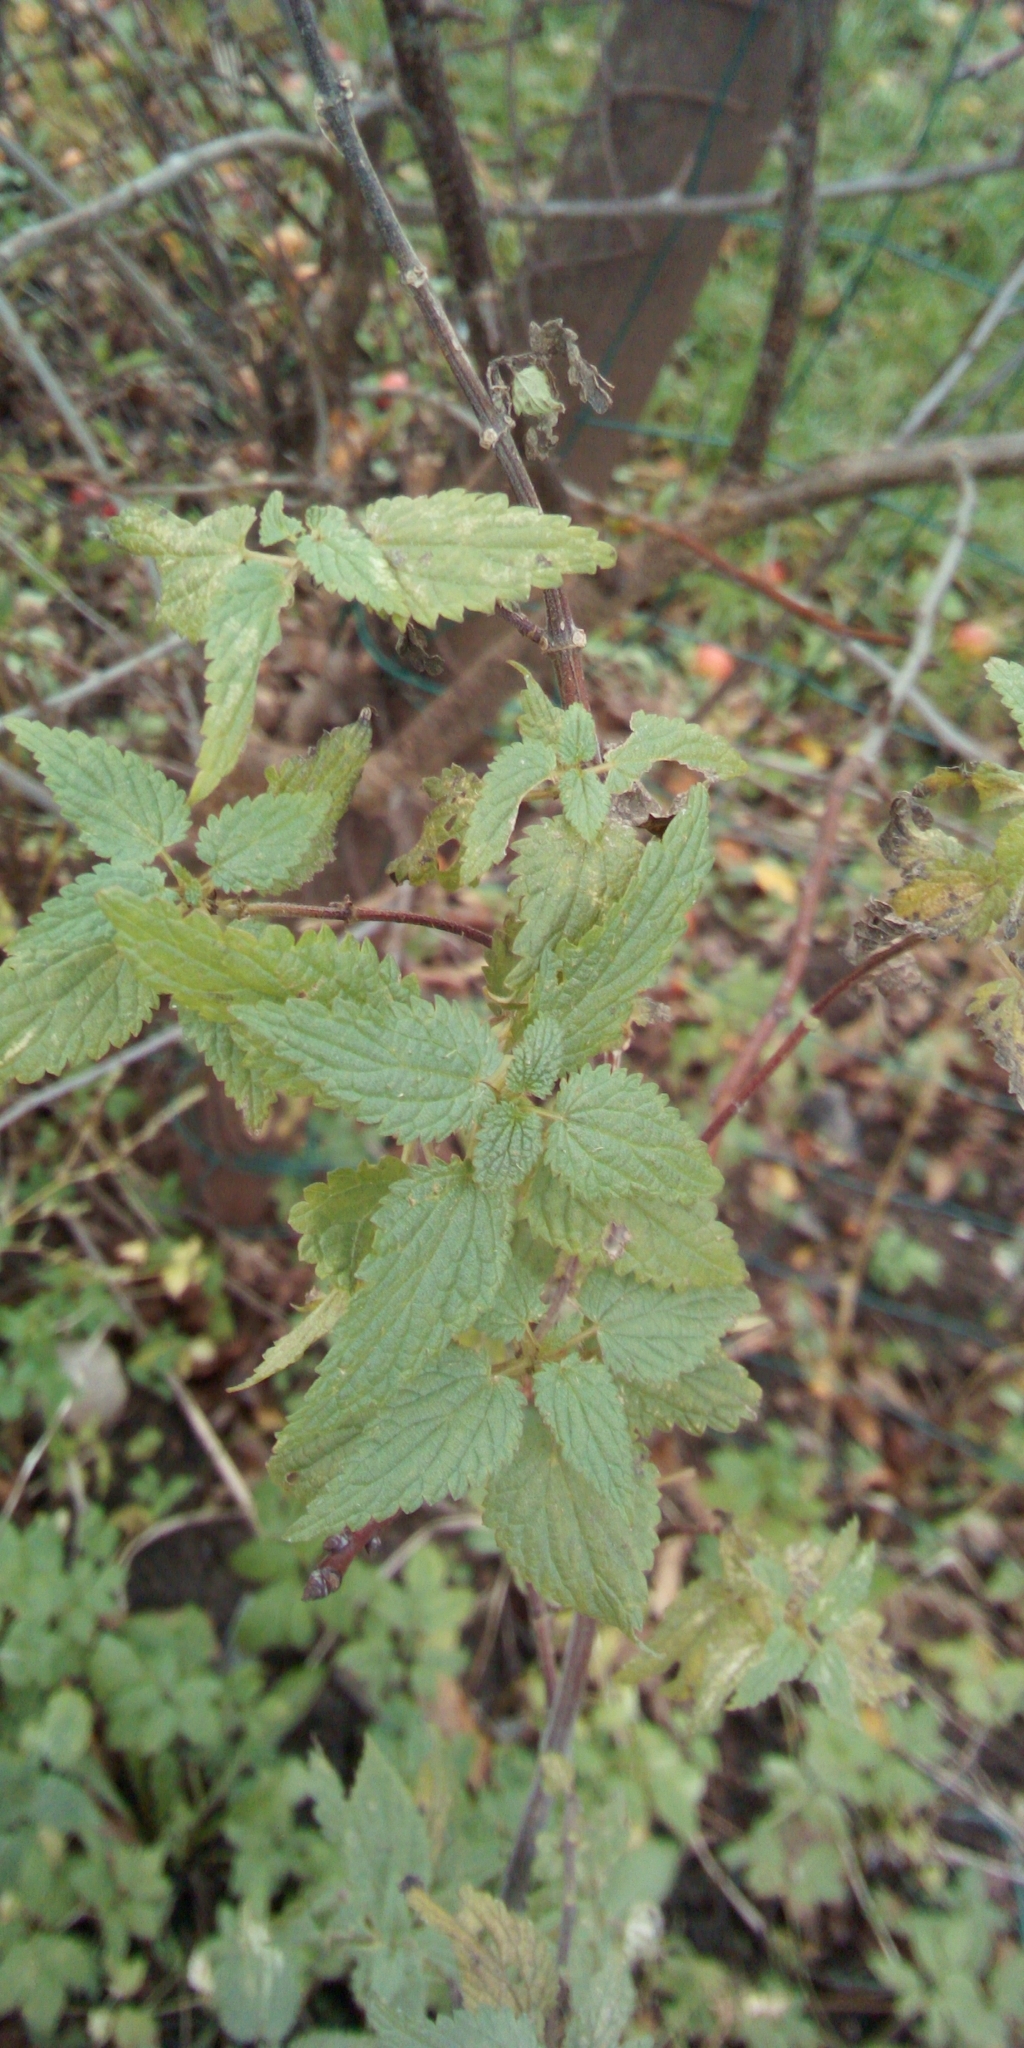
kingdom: Plantae
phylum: Tracheophyta
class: Magnoliopsida
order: Rosales
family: Urticaceae
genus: Urtica
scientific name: Urtica dioica
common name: Common nettle
